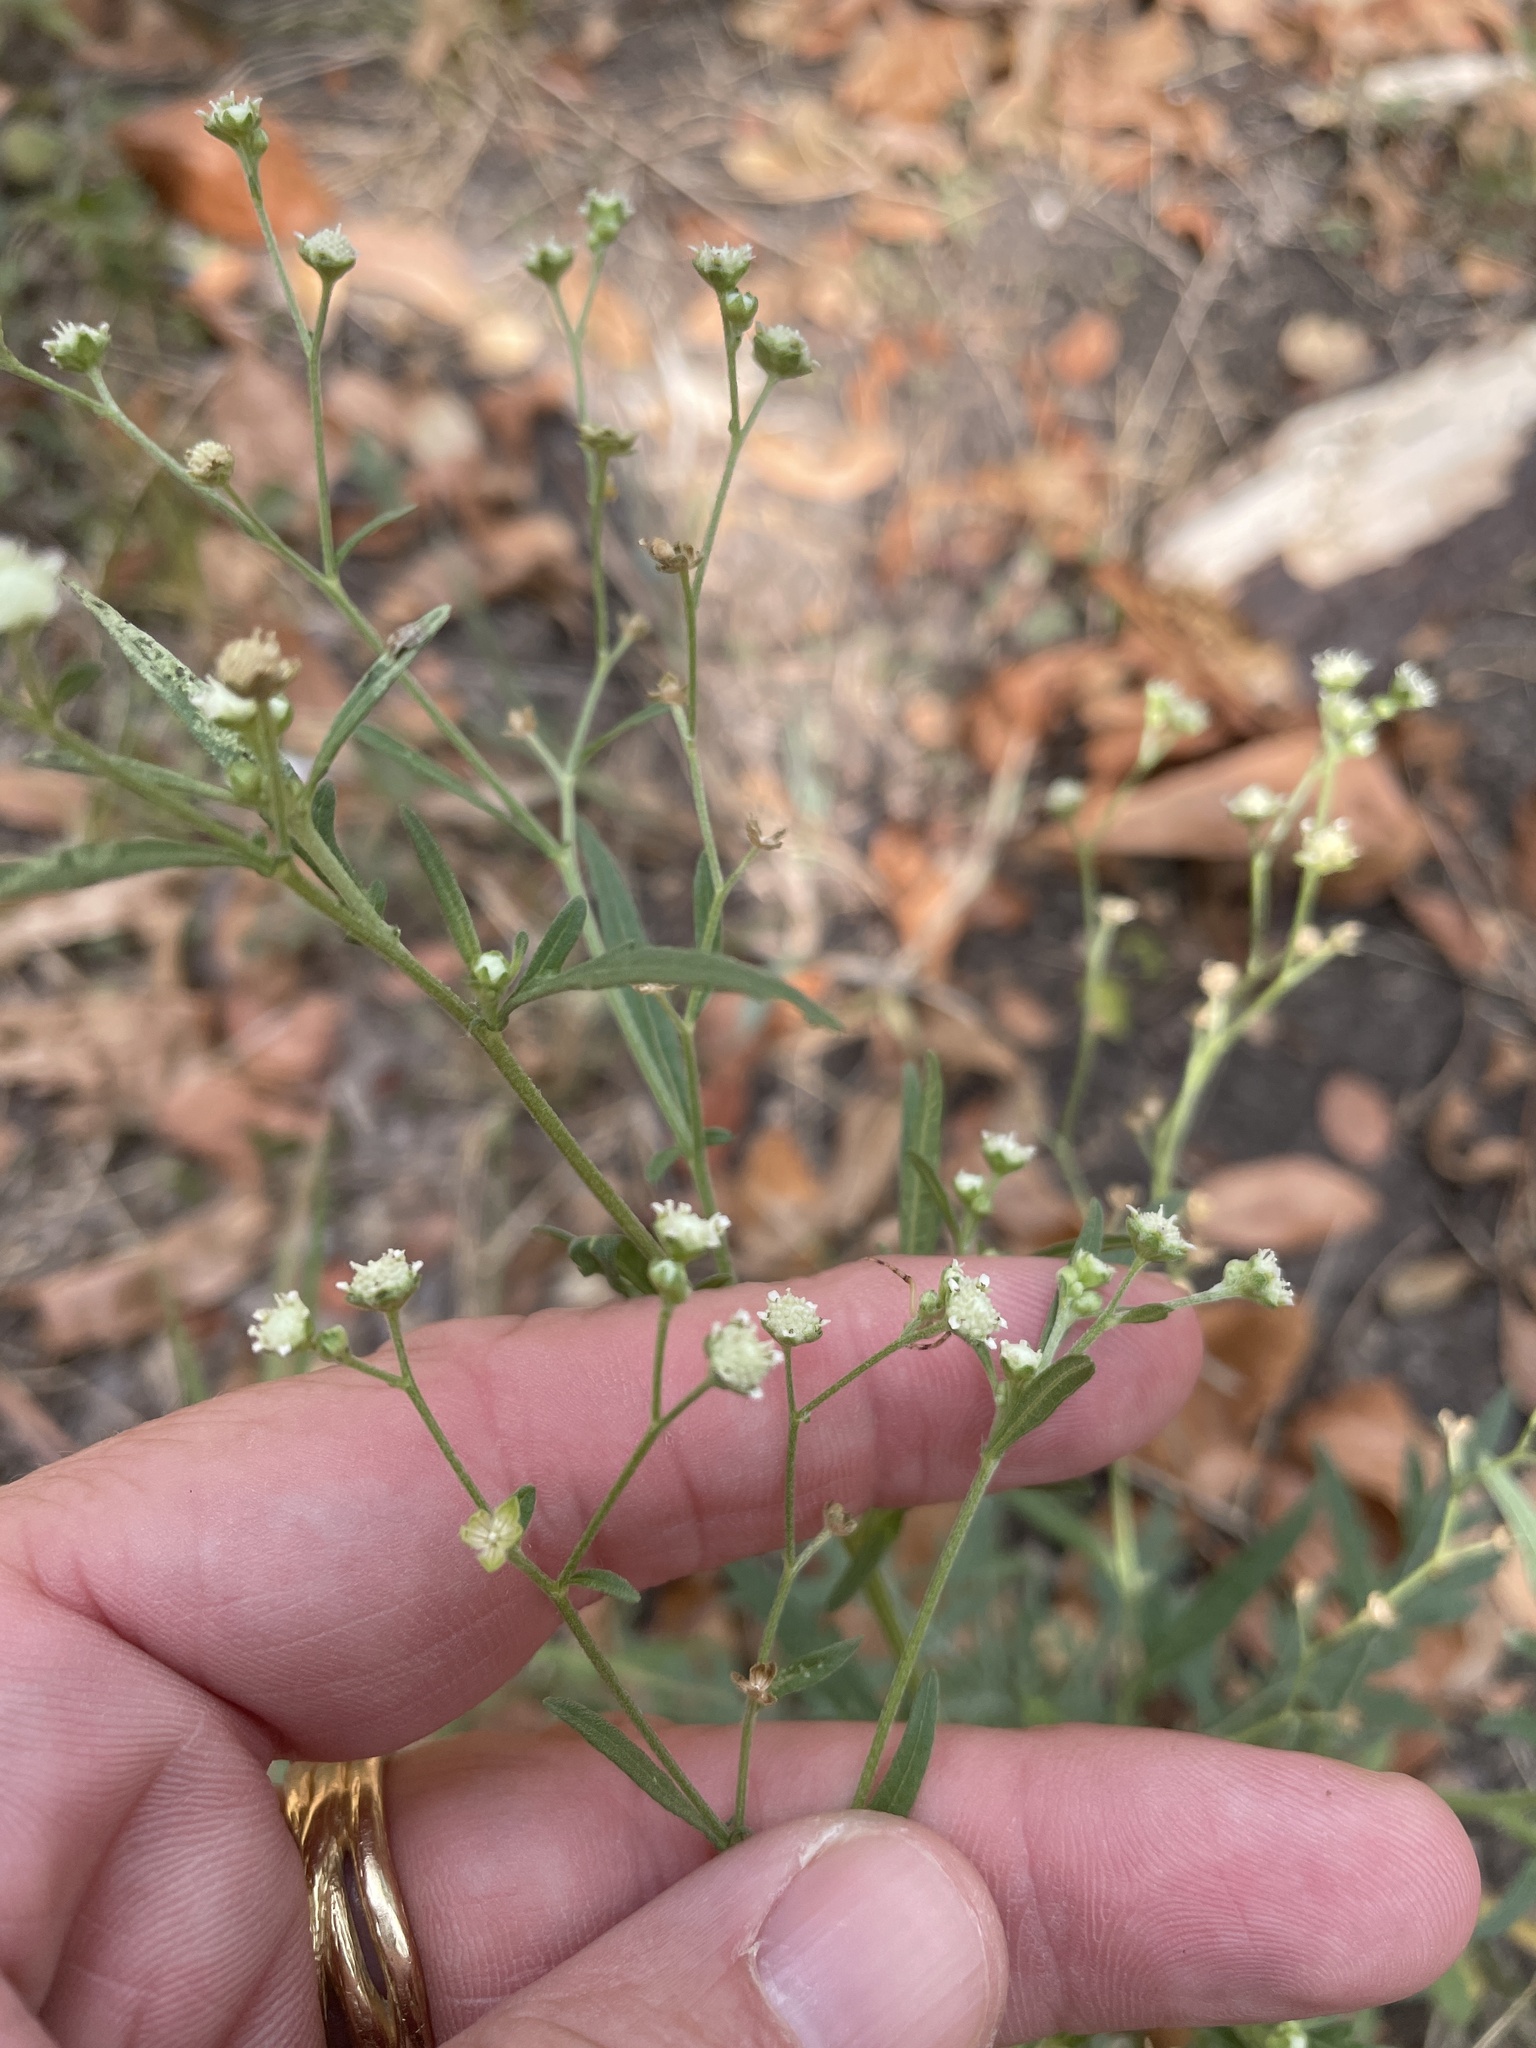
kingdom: Plantae
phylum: Tracheophyta
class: Magnoliopsida
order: Asterales
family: Asteraceae
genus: Parthenium
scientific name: Parthenium hysterophorus
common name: Santa maria feverfew
